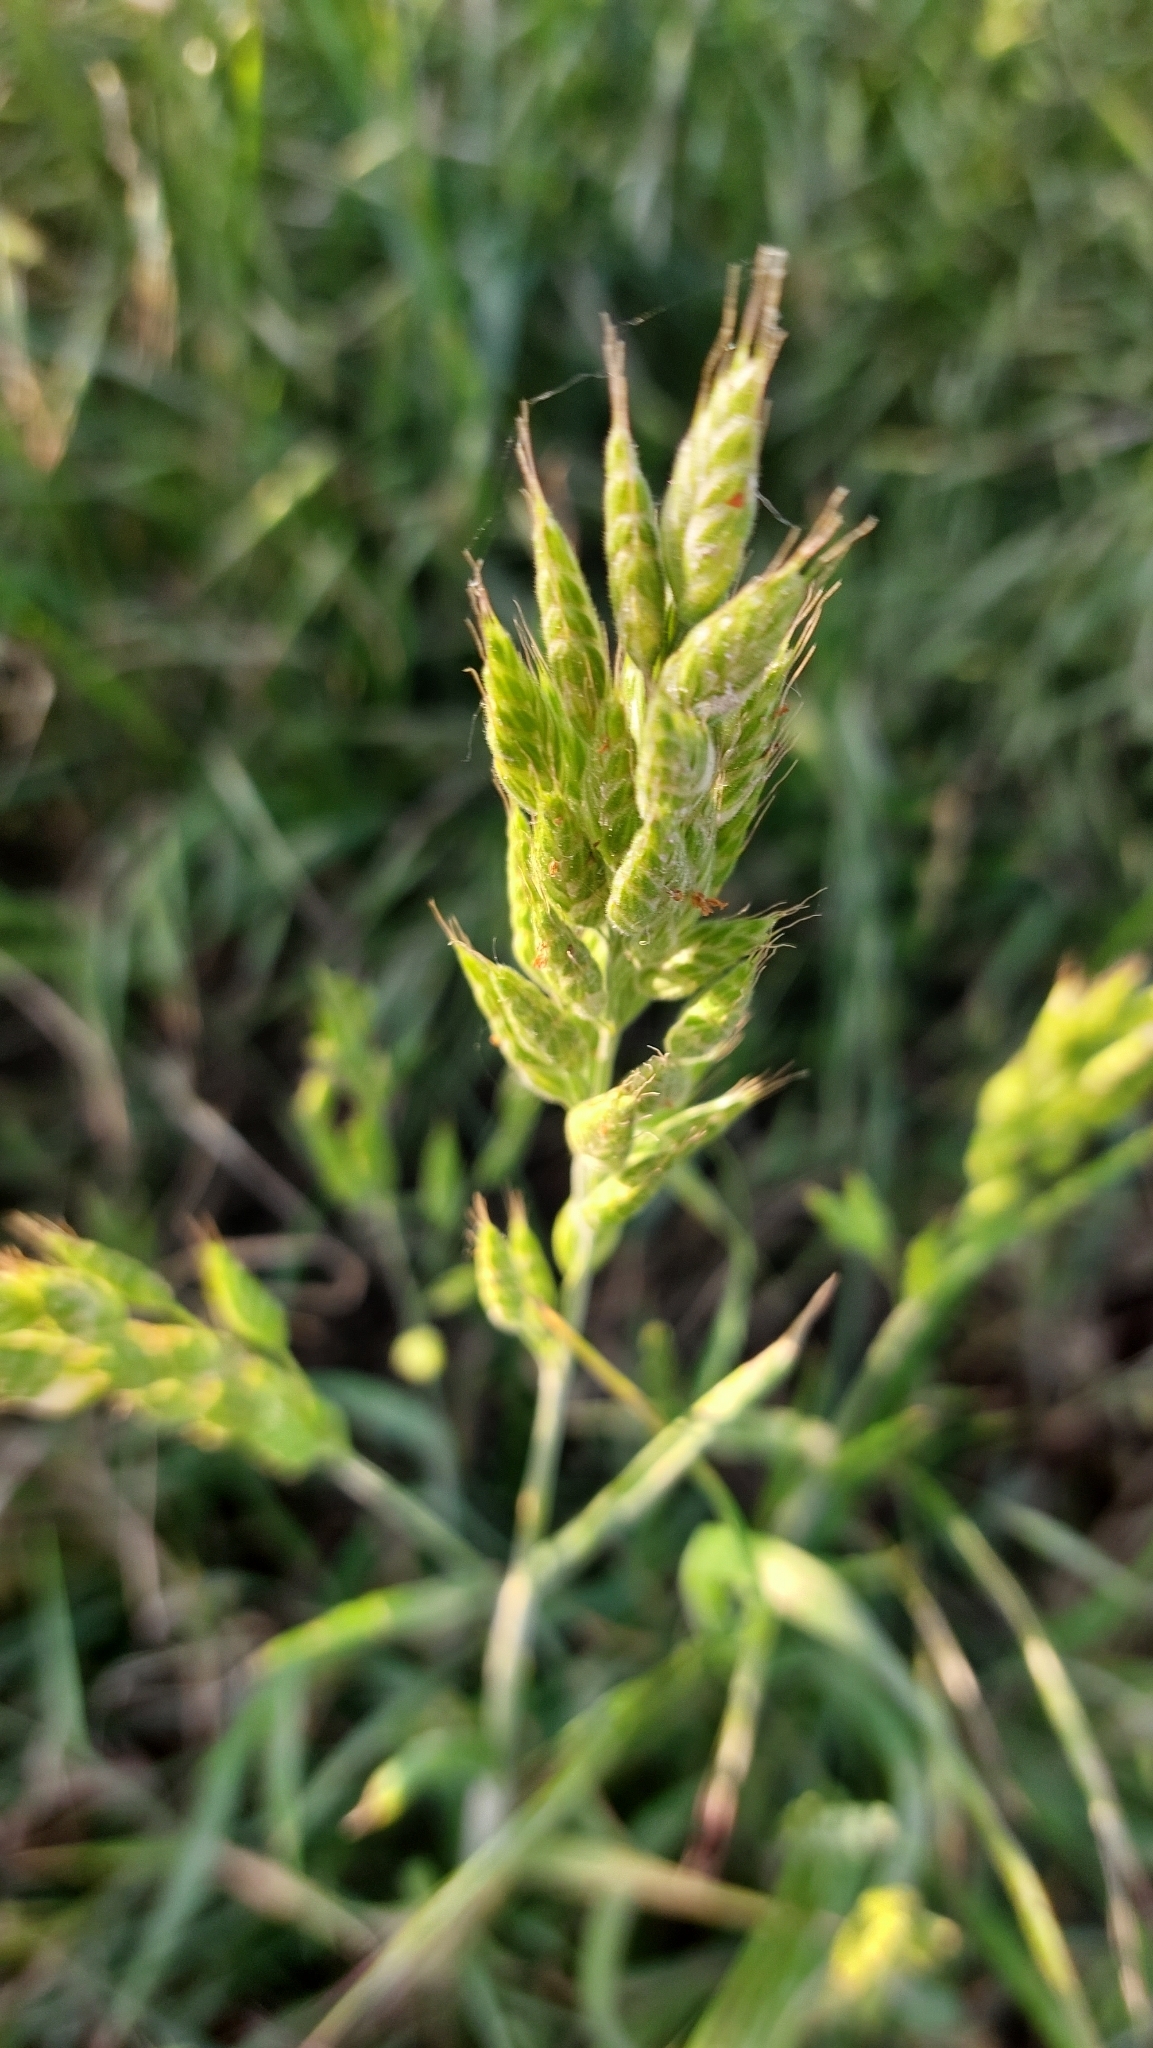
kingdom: Plantae
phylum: Tracheophyta
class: Liliopsida
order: Poales
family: Poaceae
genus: Bromus
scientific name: Bromus hordeaceus
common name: Soft brome
